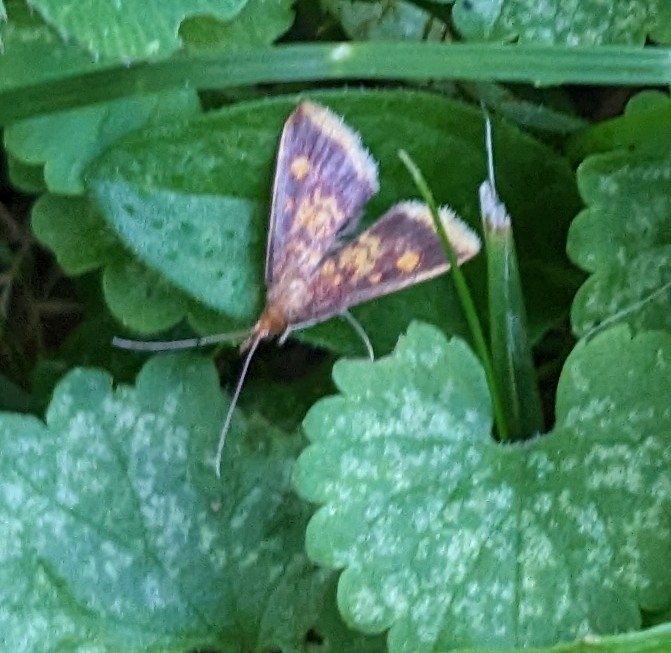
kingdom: Animalia
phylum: Arthropoda
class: Insecta
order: Lepidoptera
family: Crambidae
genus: Pyrausta
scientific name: Pyrausta acrionalis
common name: Mint-loving pyrausta moth
